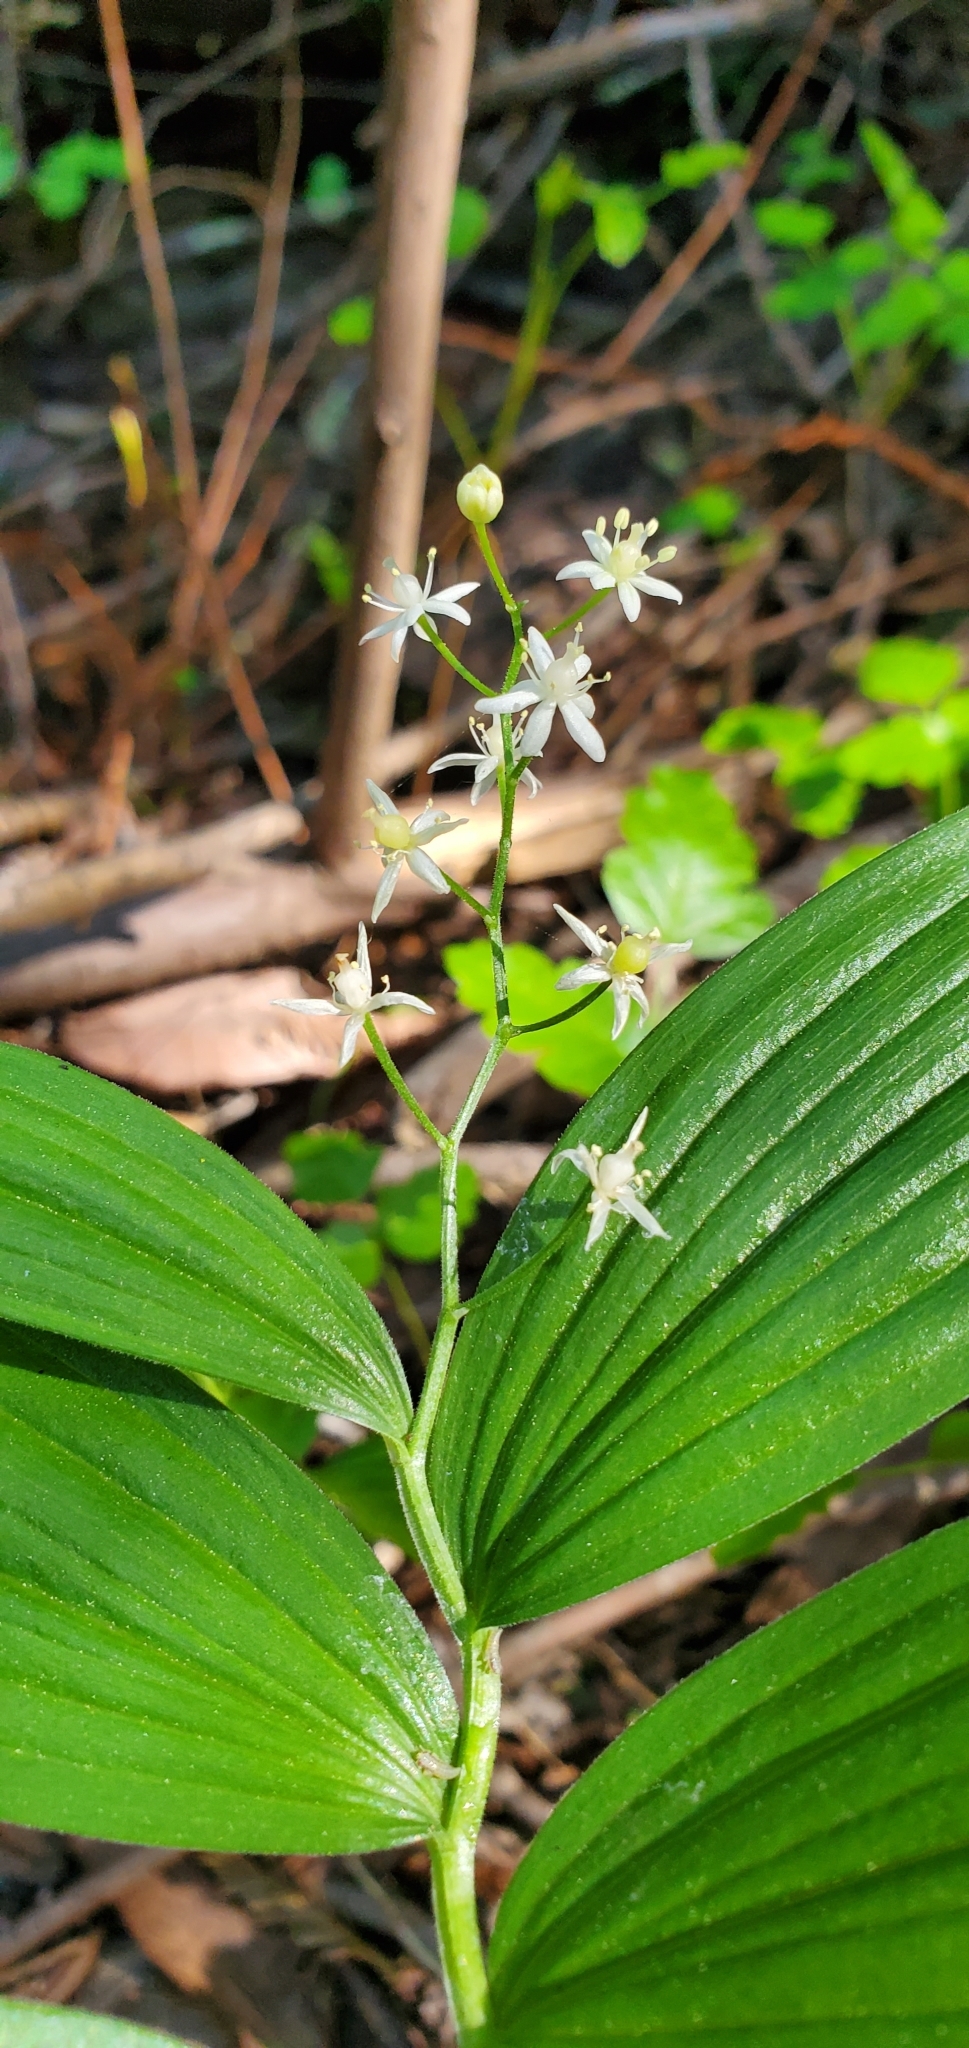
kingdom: Plantae
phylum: Tracheophyta
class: Liliopsida
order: Asparagales
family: Asparagaceae
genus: Maianthemum
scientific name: Maianthemum stellatum
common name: Little false solomon's seal
